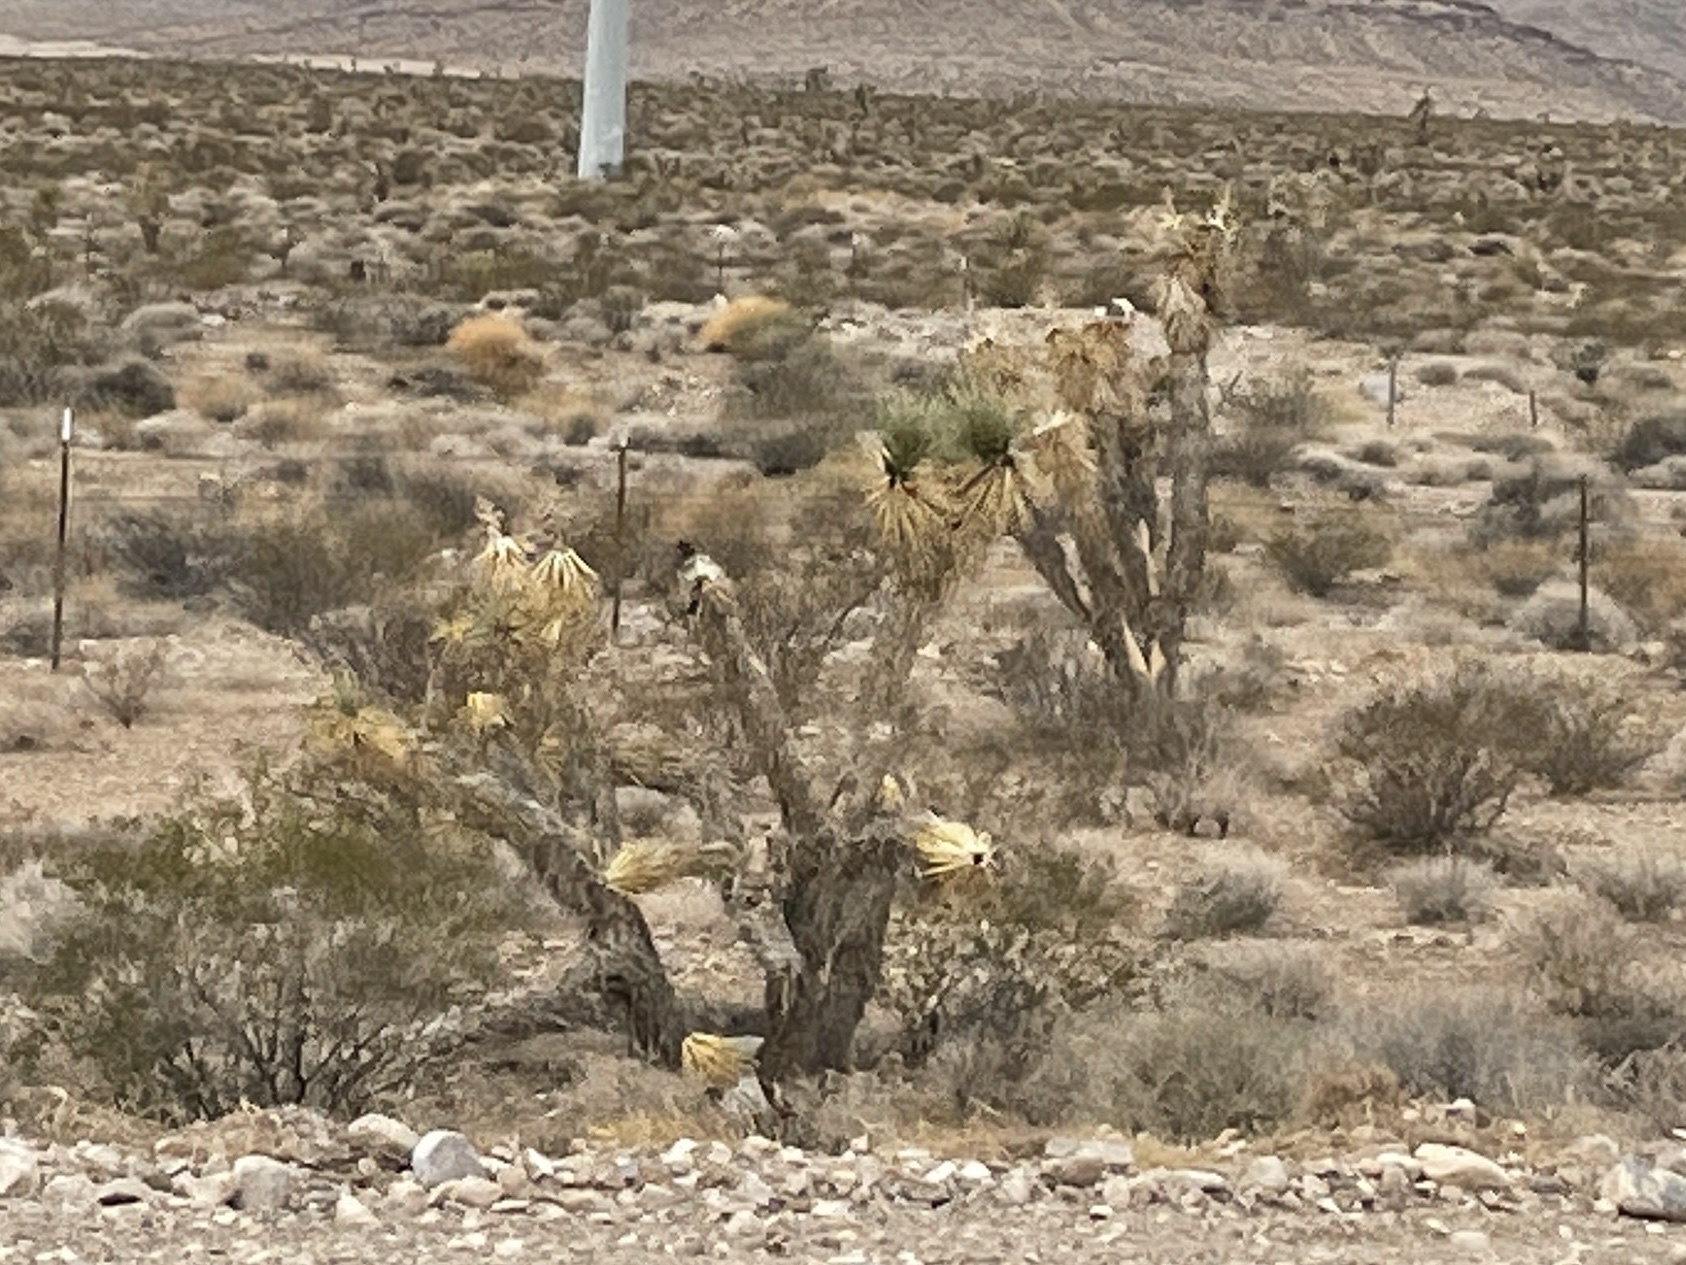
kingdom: Plantae
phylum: Tracheophyta
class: Liliopsida
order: Asparagales
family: Asparagaceae
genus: Yucca
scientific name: Yucca brevifolia
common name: Joshua tree
